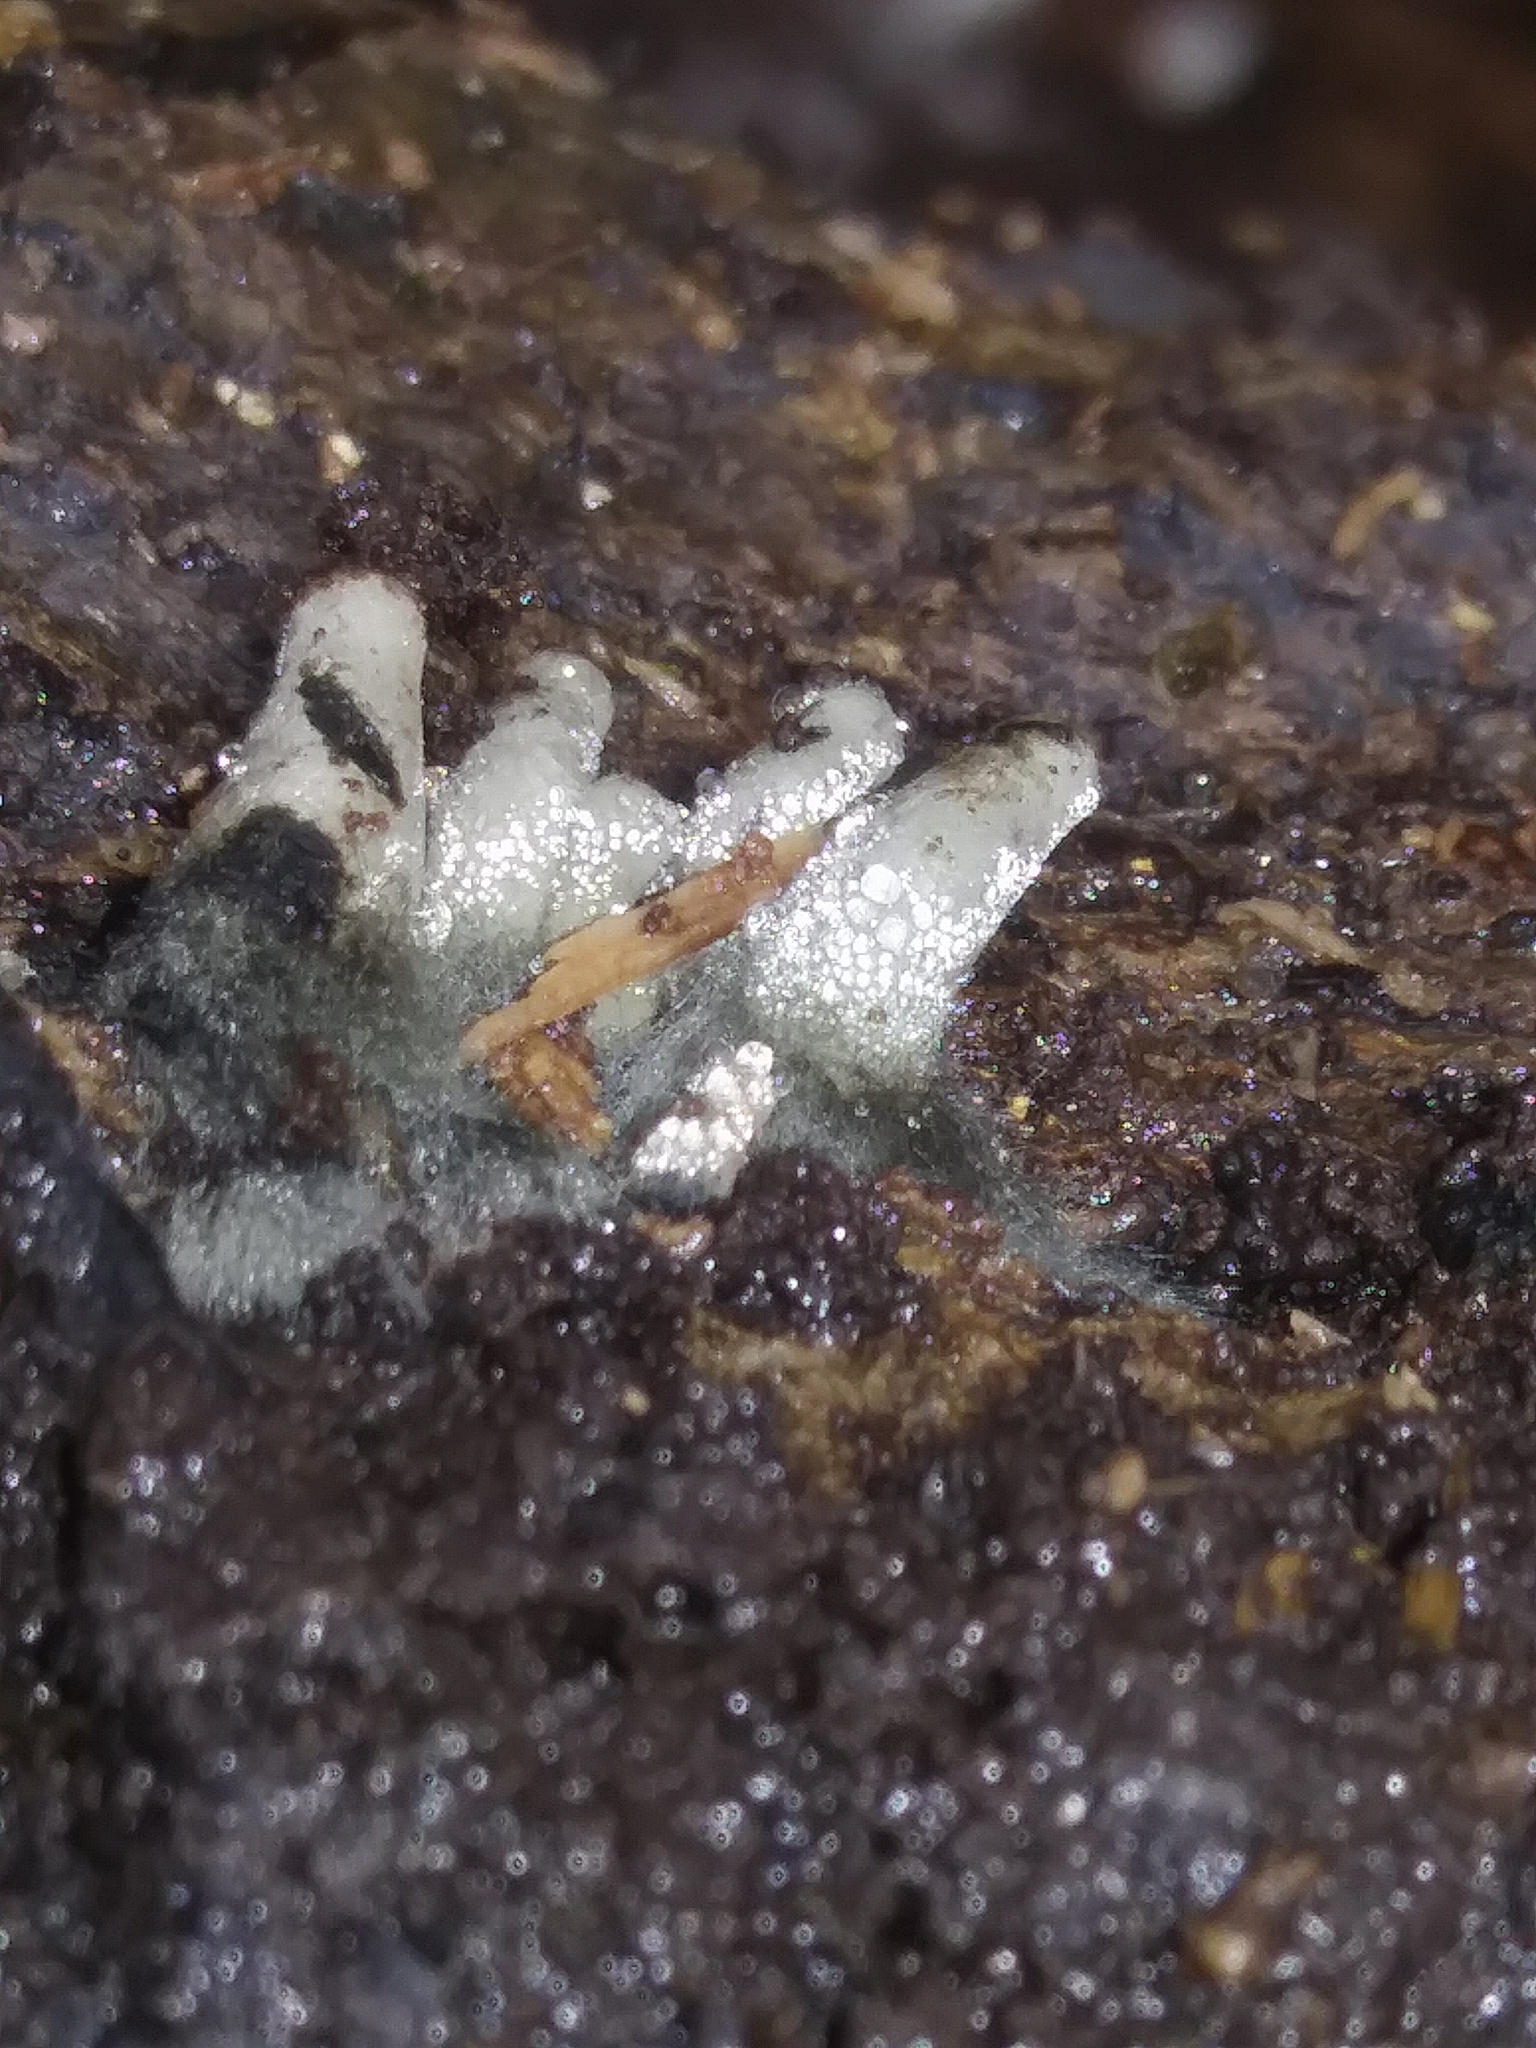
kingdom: Fungi
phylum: Ascomycota
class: Sordariomycetes
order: Xylariales
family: Xylariaceae
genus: Xylaria
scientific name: Xylaria polymorpha
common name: Dead man's fingers
